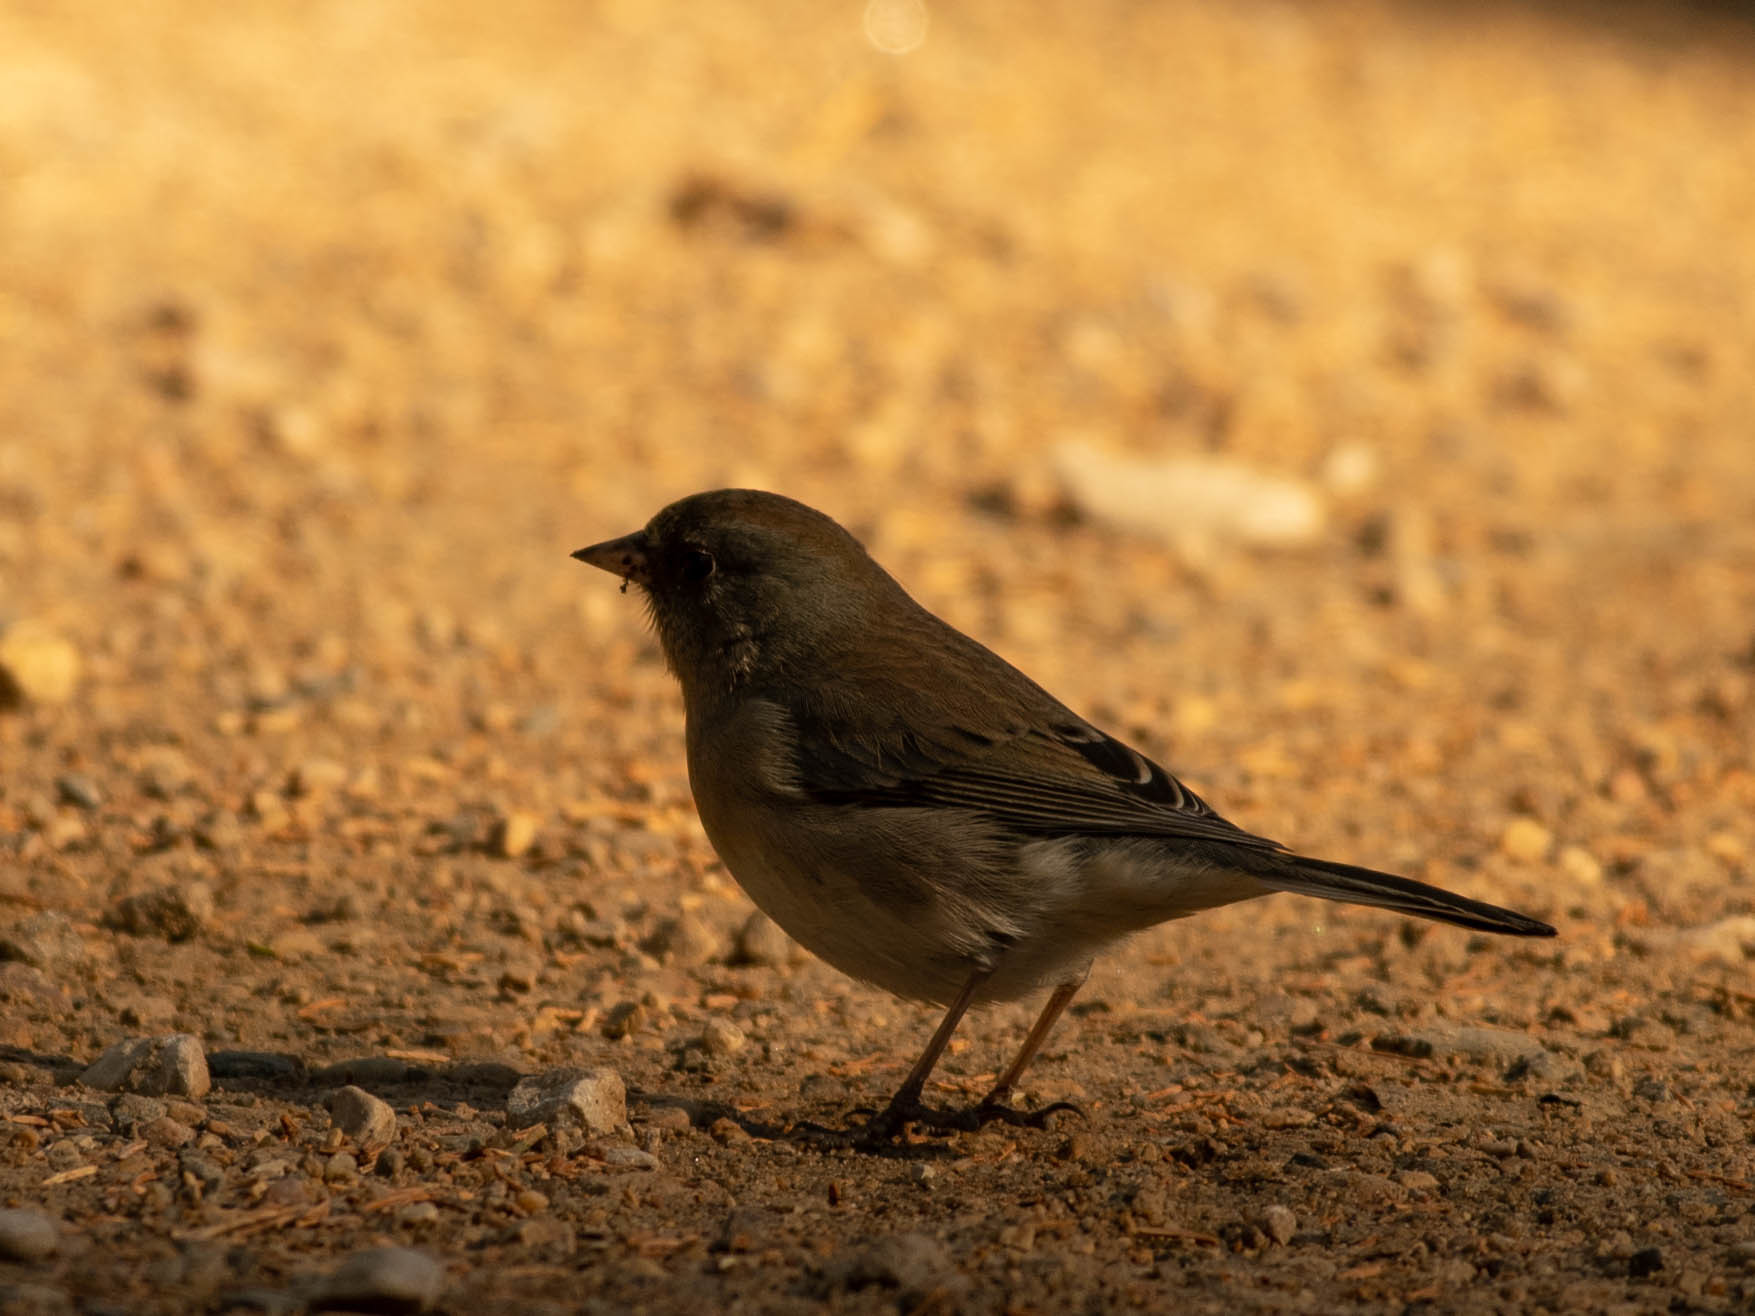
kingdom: Animalia
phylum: Chordata
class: Aves
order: Passeriformes
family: Passerellidae
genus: Junco
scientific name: Junco hyemalis
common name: Dark-eyed junco
